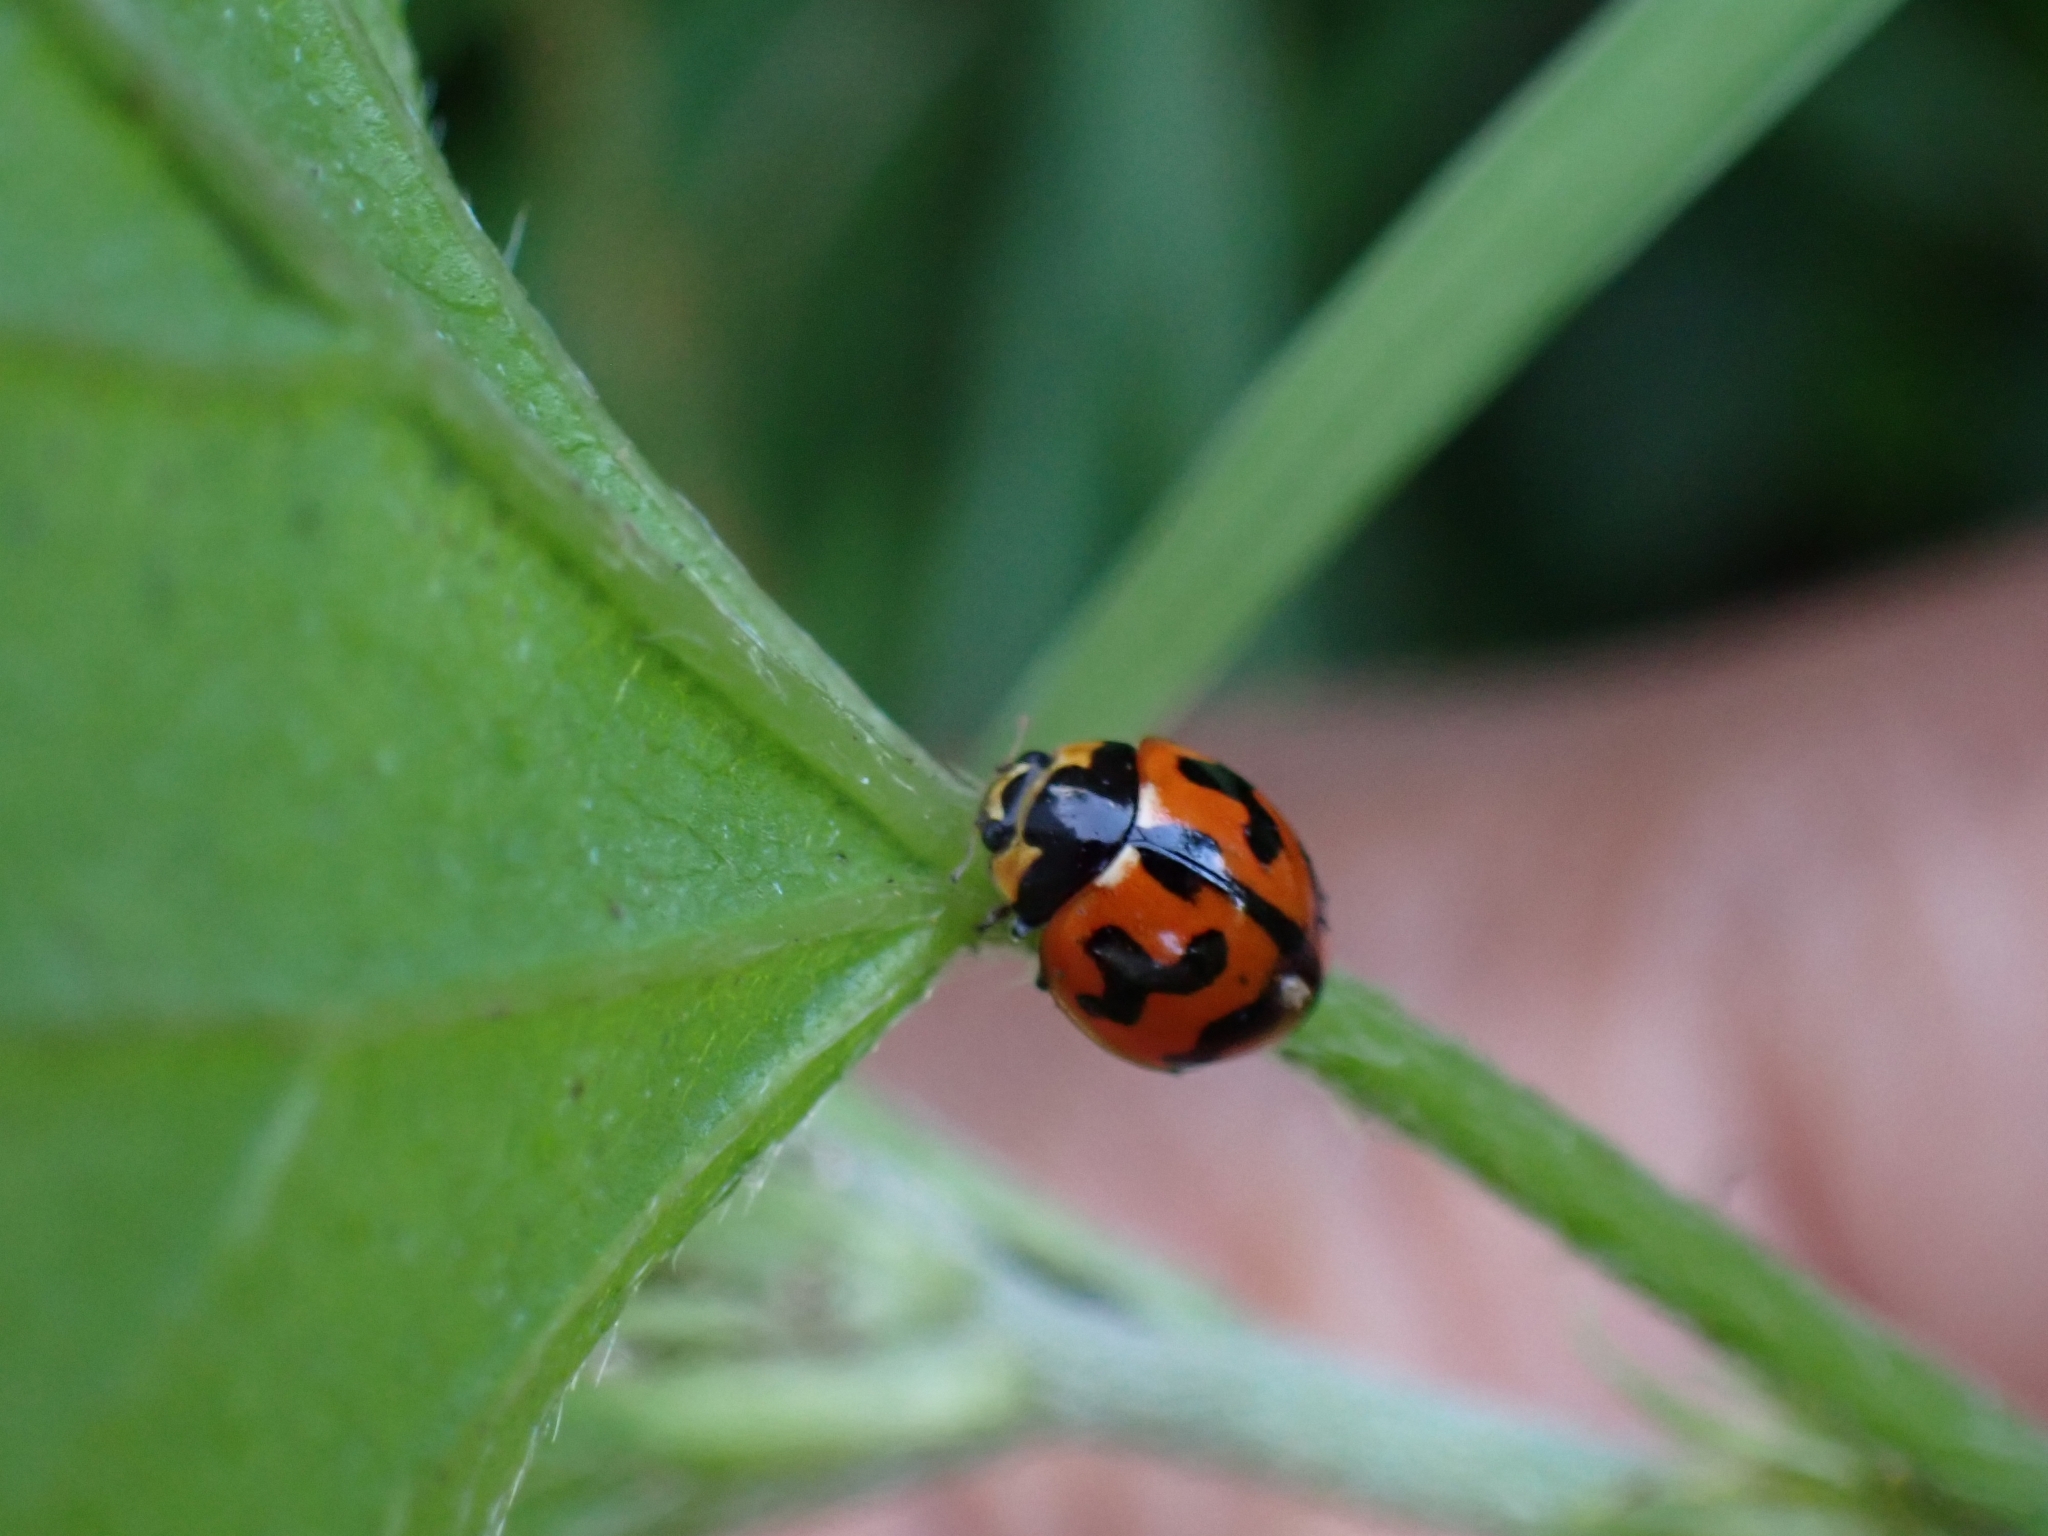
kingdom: Animalia
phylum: Arthropoda
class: Insecta
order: Coleoptera
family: Coccinellidae
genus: Coccinella
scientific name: Coccinella transversalis
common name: Transverse lady beetle
